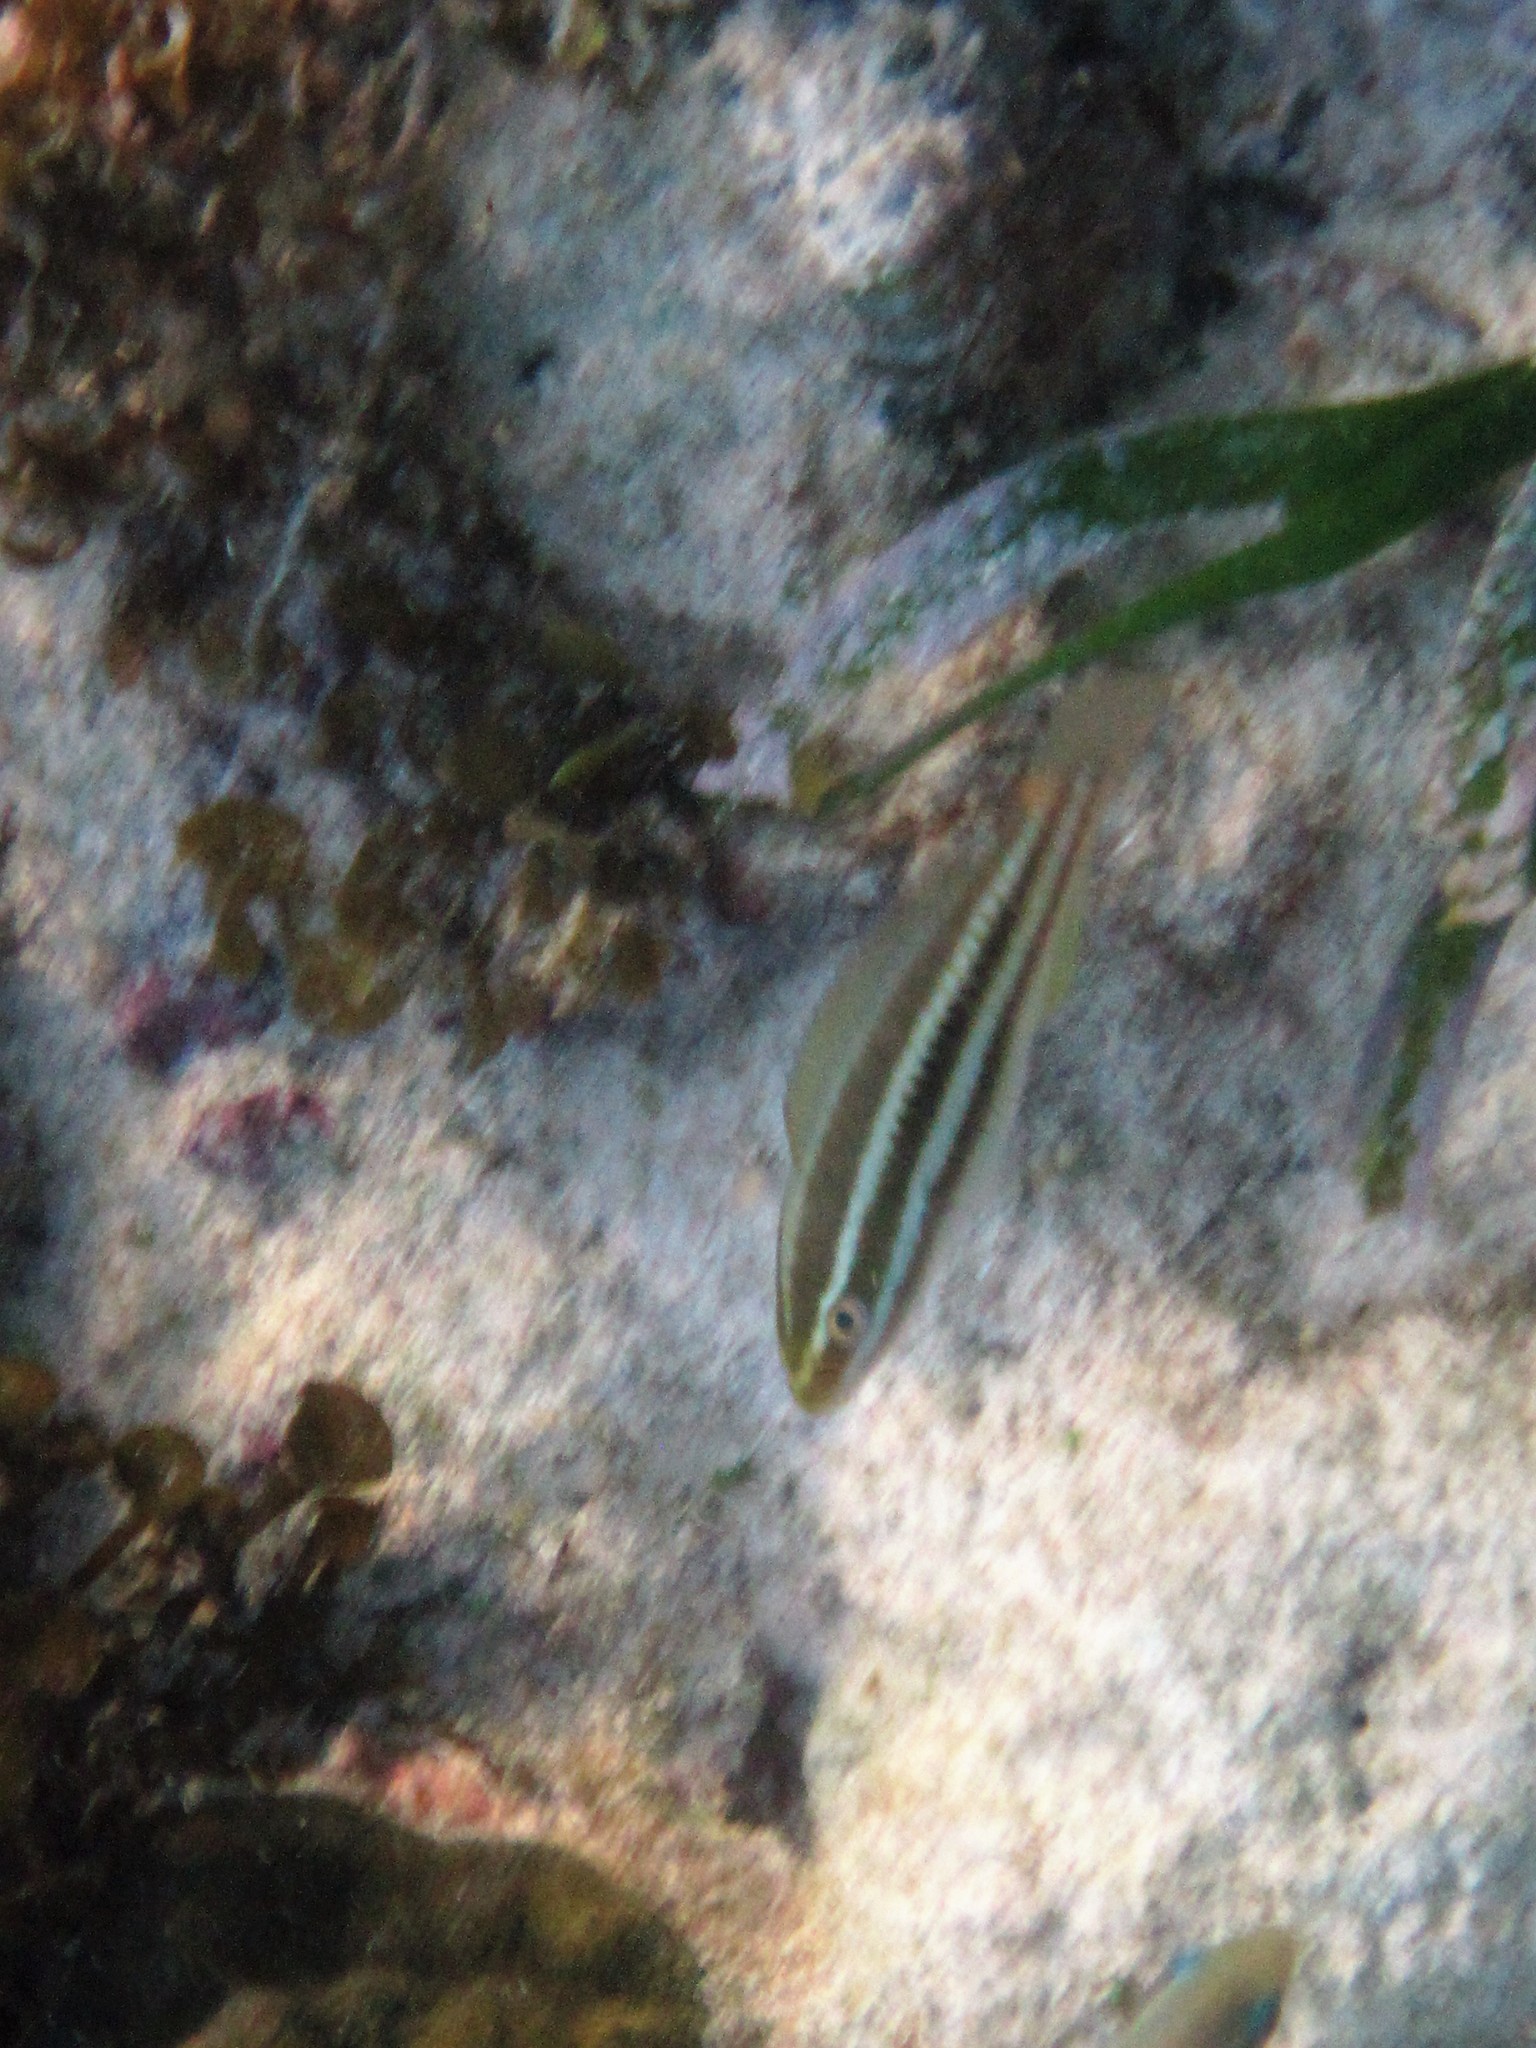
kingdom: Animalia
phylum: Chordata
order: Perciformes
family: Scaridae
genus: Scarus
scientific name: Scarus iseri
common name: Striped parrotfish
